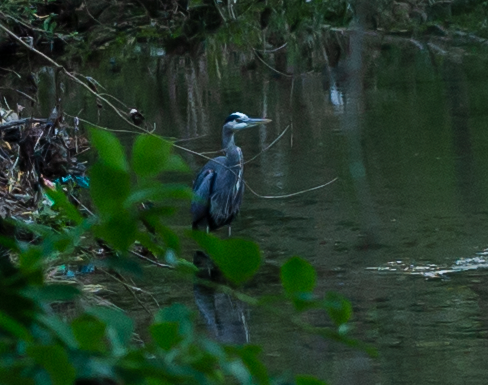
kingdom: Animalia
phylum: Chordata
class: Aves
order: Pelecaniformes
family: Ardeidae
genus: Ardea
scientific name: Ardea herodias
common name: Great blue heron
